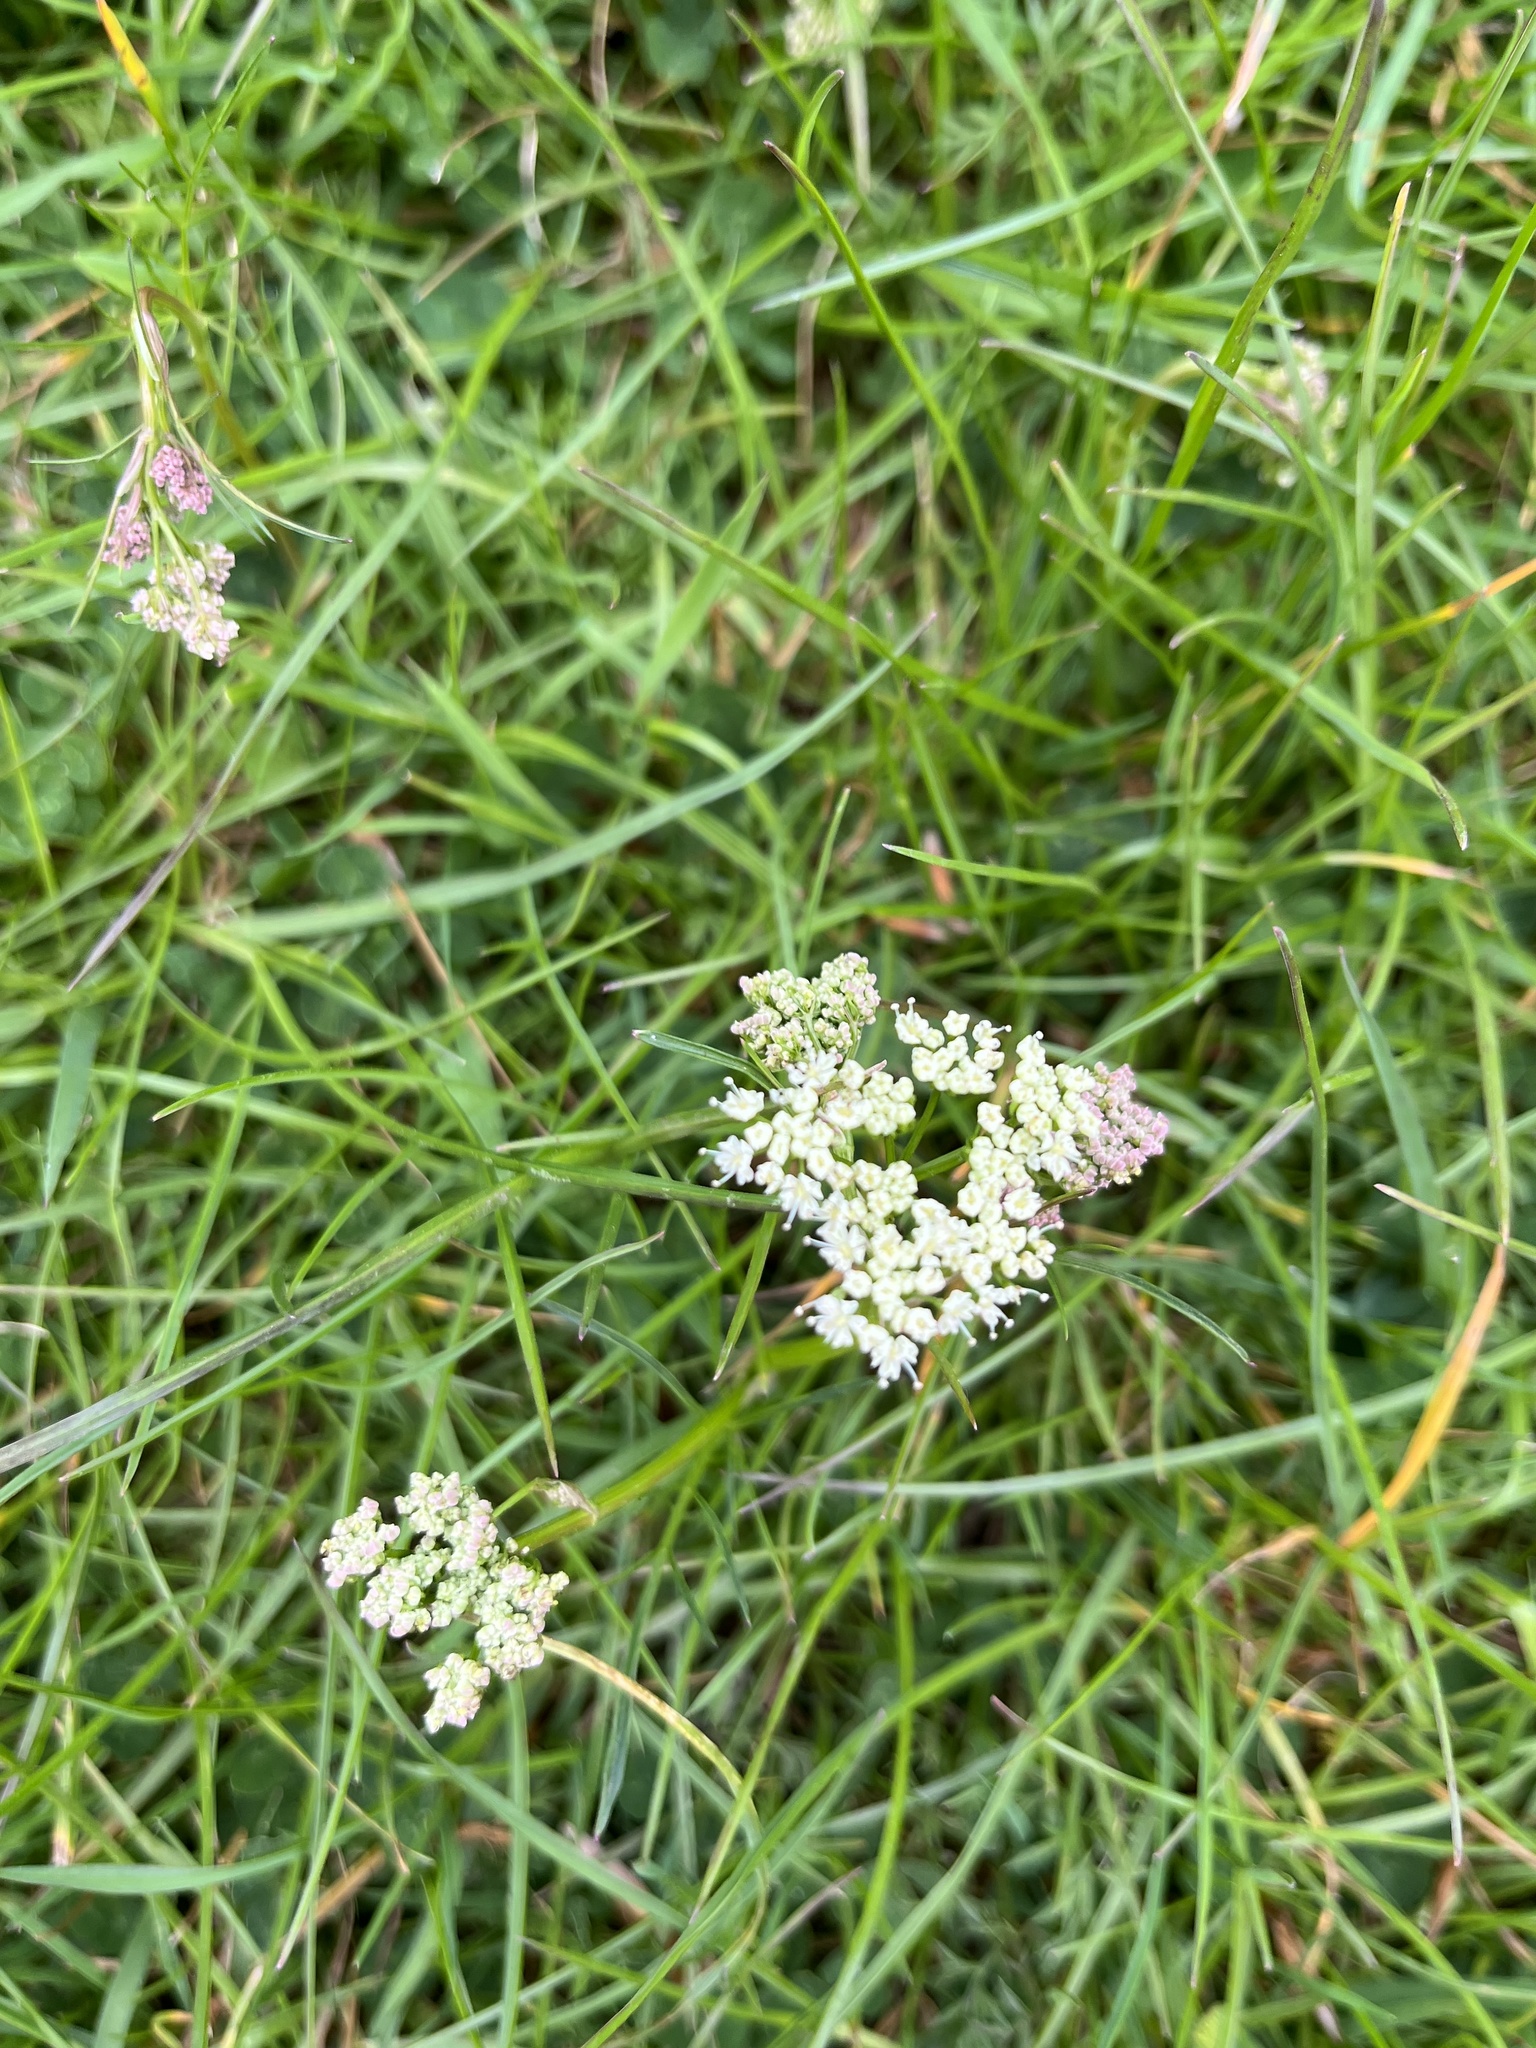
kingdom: Plantae
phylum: Tracheophyta
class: Magnoliopsida
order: Apiales
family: Apiaceae
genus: Conopodium
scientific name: Conopodium majus
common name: Pignut
